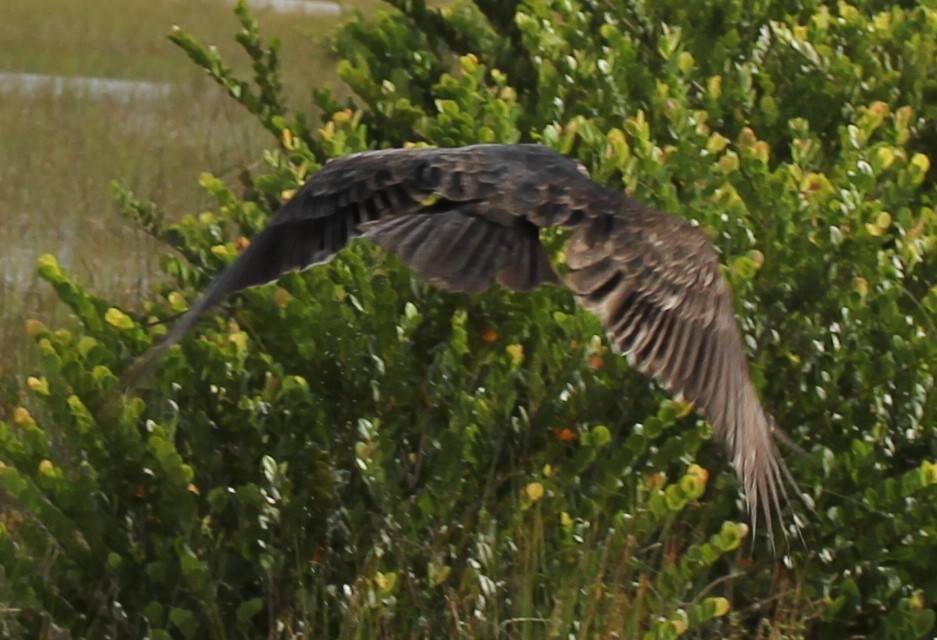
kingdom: Animalia
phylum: Chordata
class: Aves
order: Accipitriformes
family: Cathartidae
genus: Cathartes
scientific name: Cathartes aura
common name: Turkey vulture
